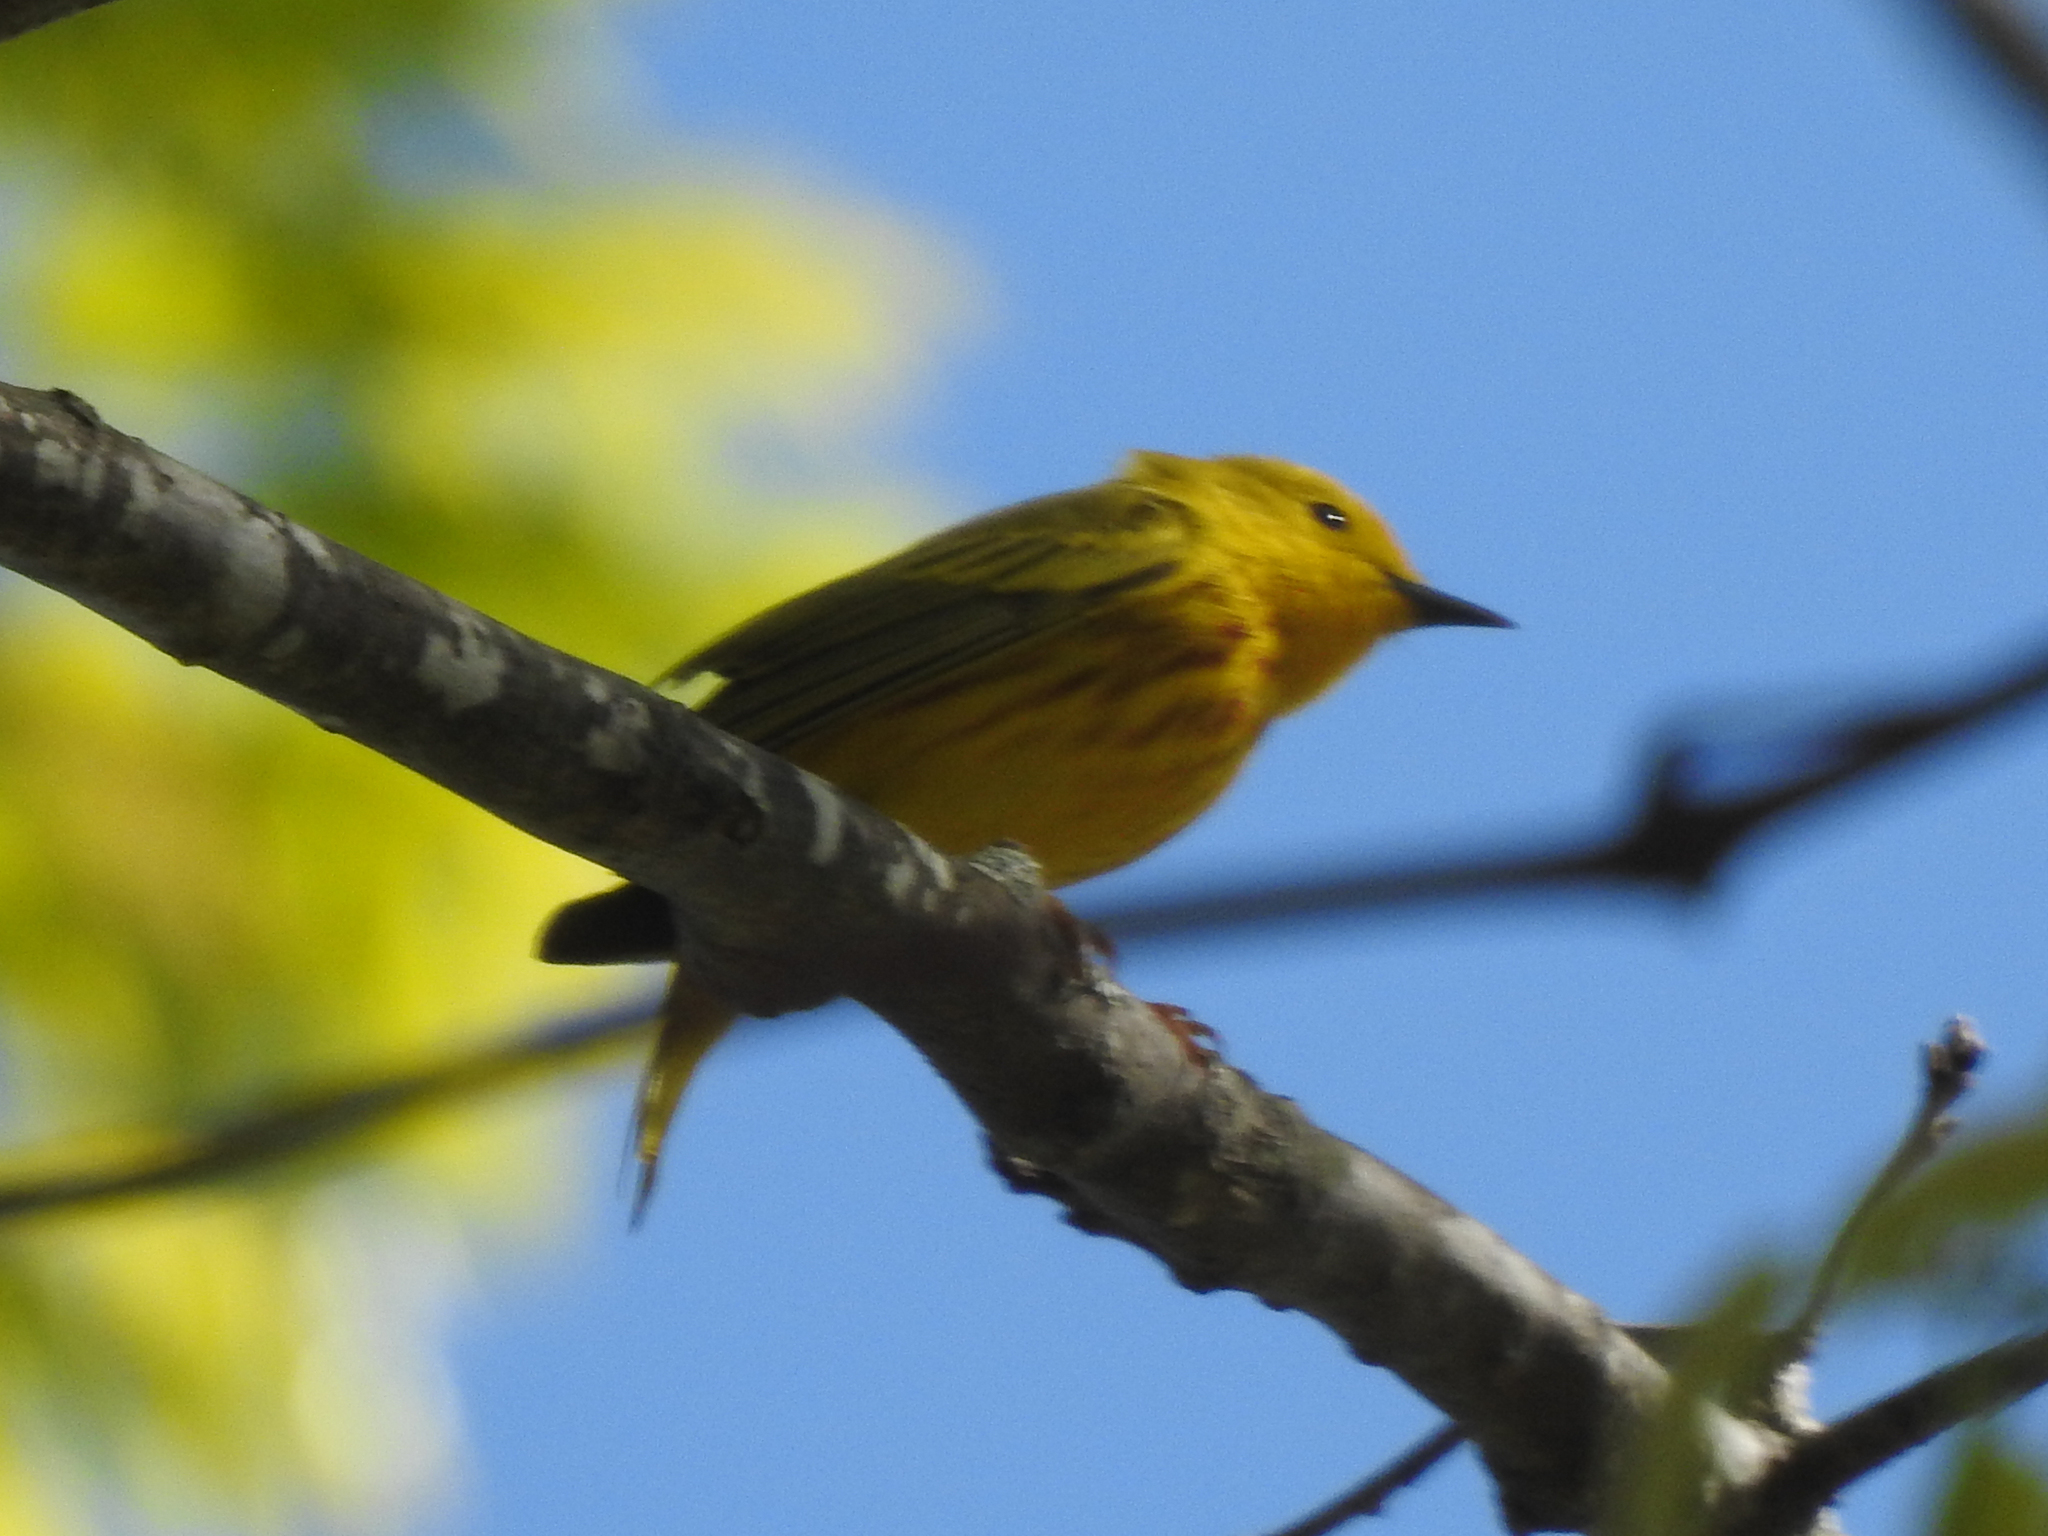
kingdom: Animalia
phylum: Chordata
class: Aves
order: Passeriformes
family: Parulidae
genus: Setophaga
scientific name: Setophaga petechia
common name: Yellow warbler
